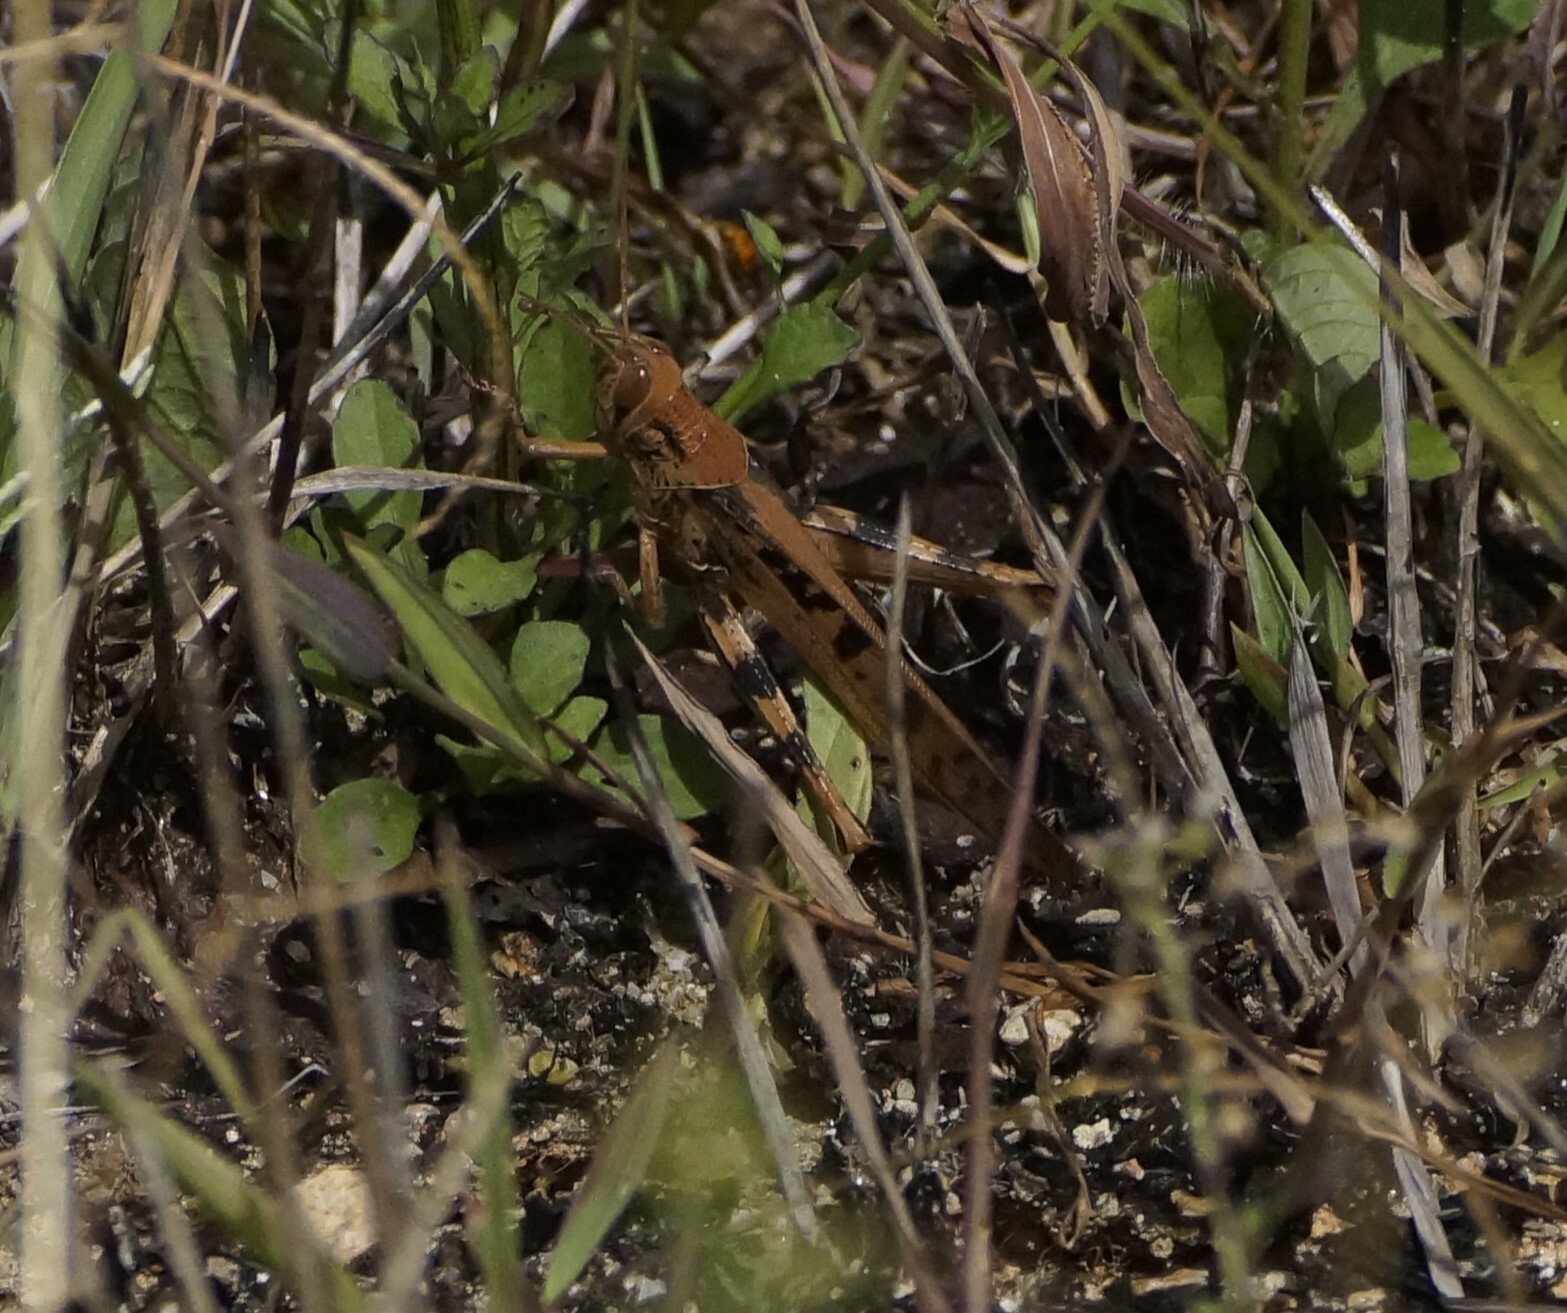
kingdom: Animalia
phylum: Arthropoda
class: Insecta
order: Orthoptera
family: Acrididae
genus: Austracris
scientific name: Austracris proxima
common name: Confusing spur-throated locust
